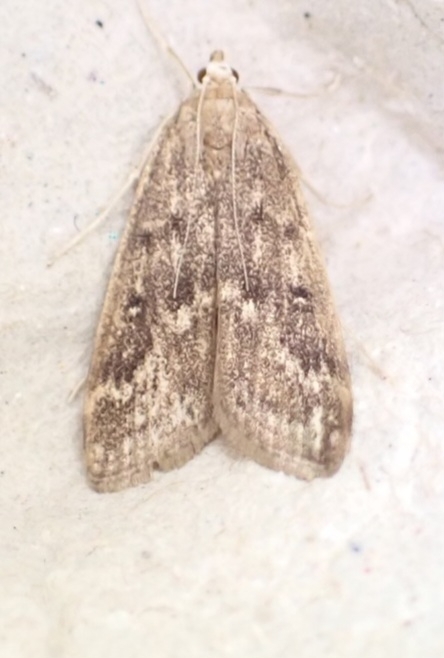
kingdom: Animalia
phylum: Arthropoda
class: Insecta
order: Lepidoptera
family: Crambidae
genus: Parapoynx
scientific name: Parapoynx stratiotata
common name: Ringed china-mark
